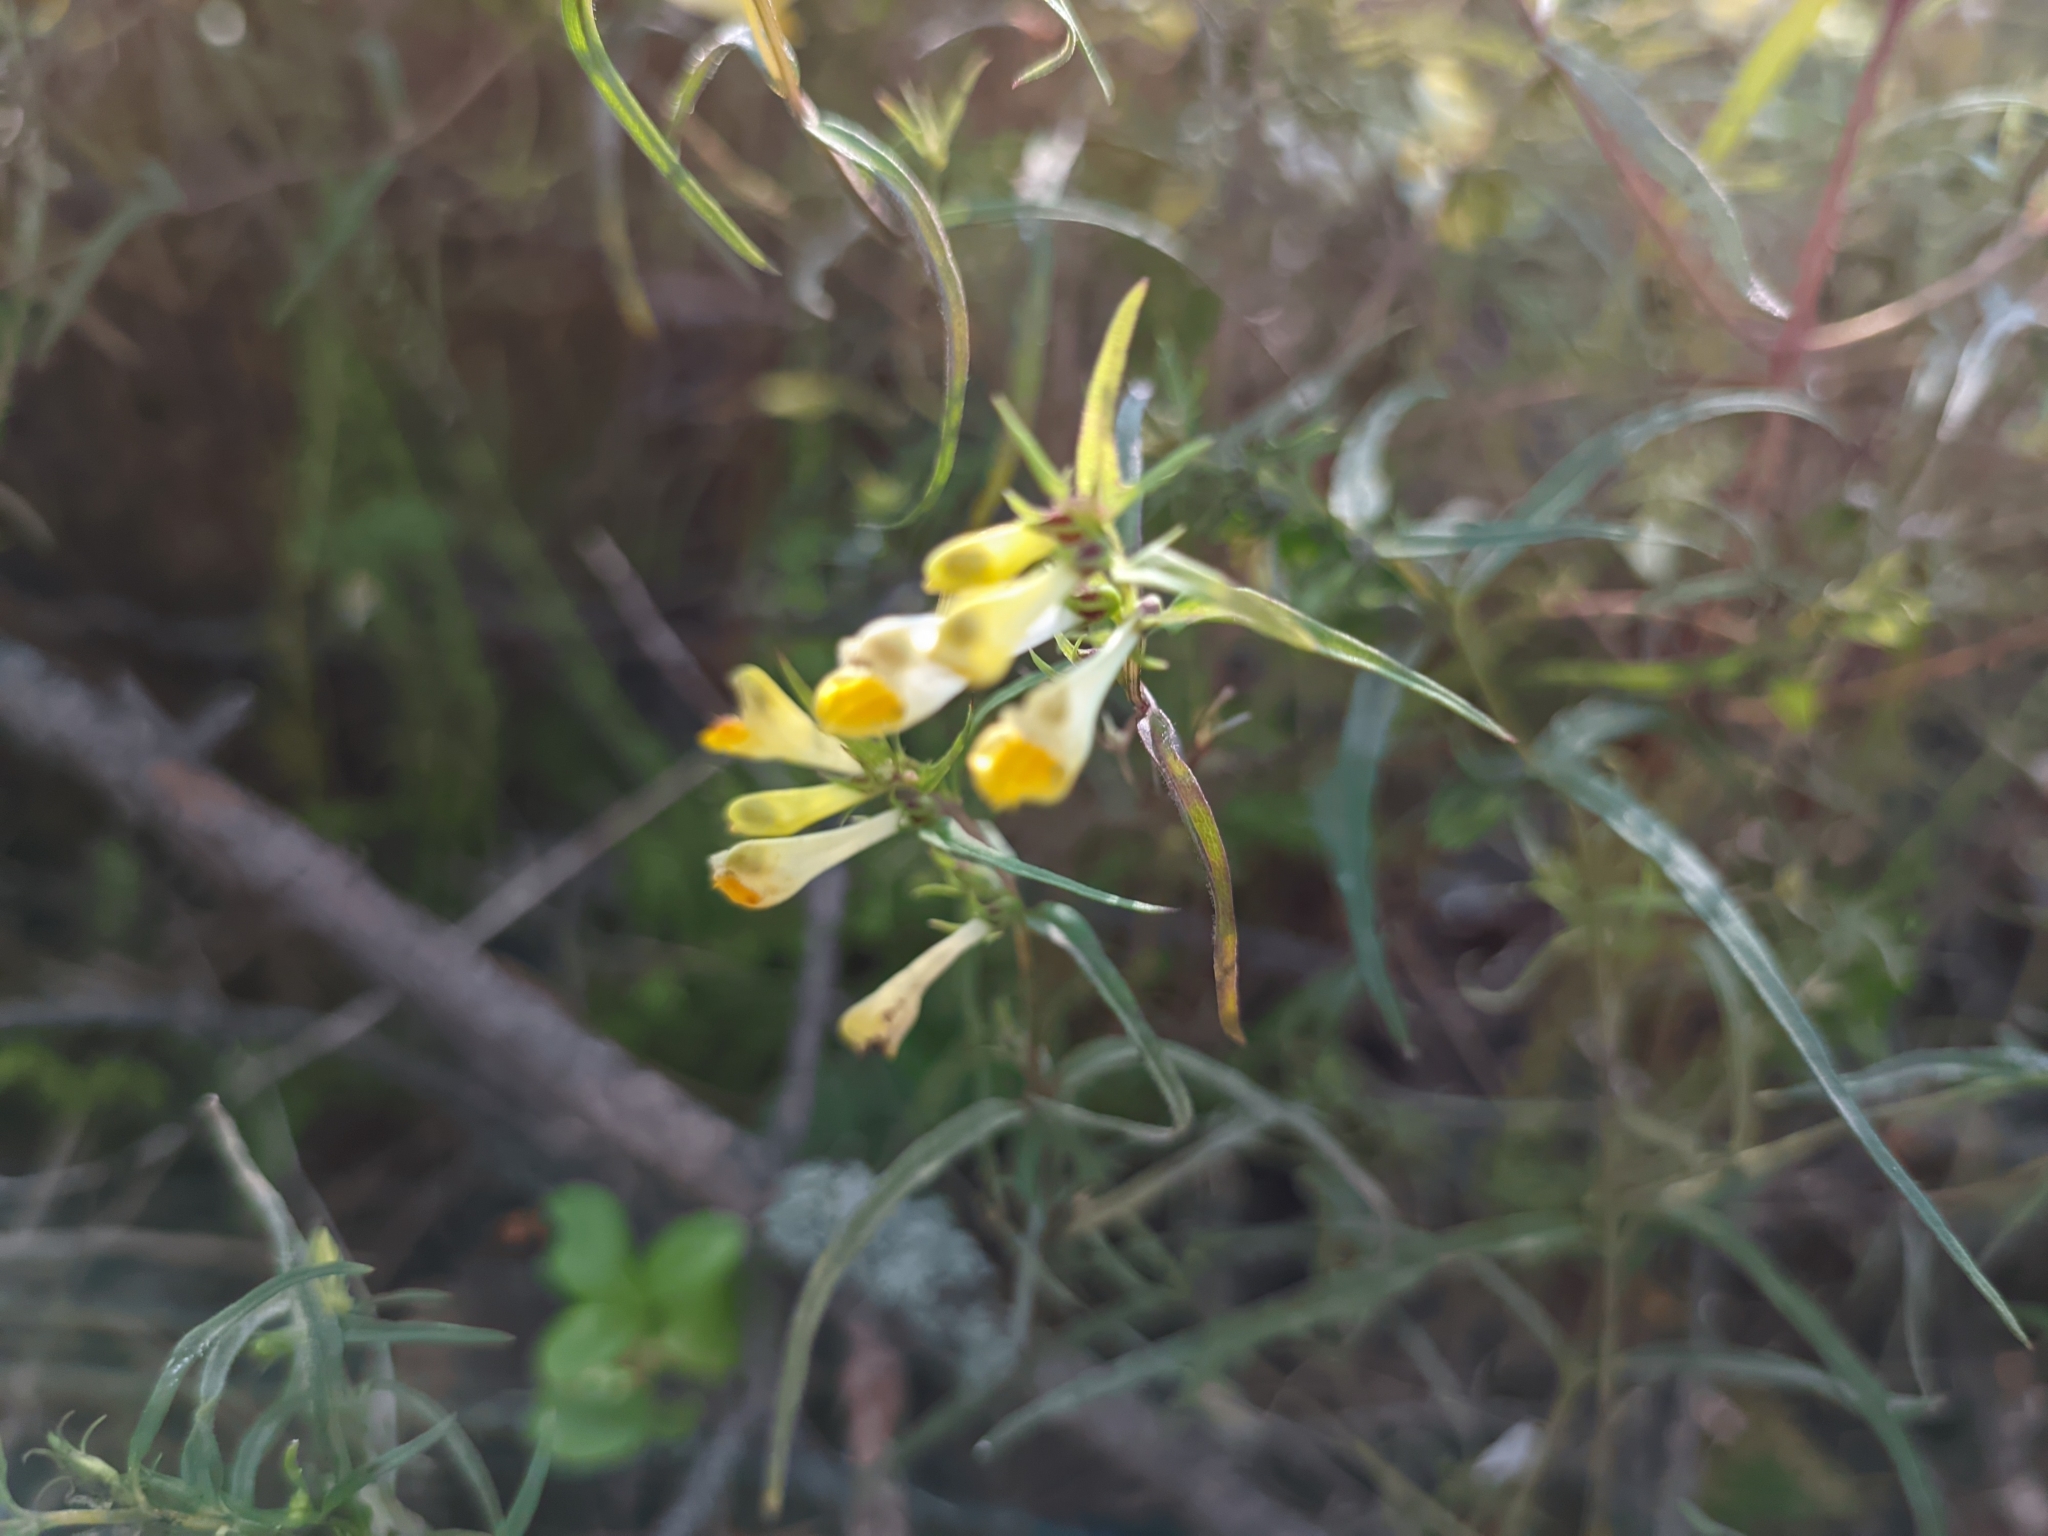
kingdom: Plantae
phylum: Tracheophyta
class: Magnoliopsida
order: Lamiales
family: Orobanchaceae
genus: Melampyrum
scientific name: Melampyrum pratense
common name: Common cow-wheat
